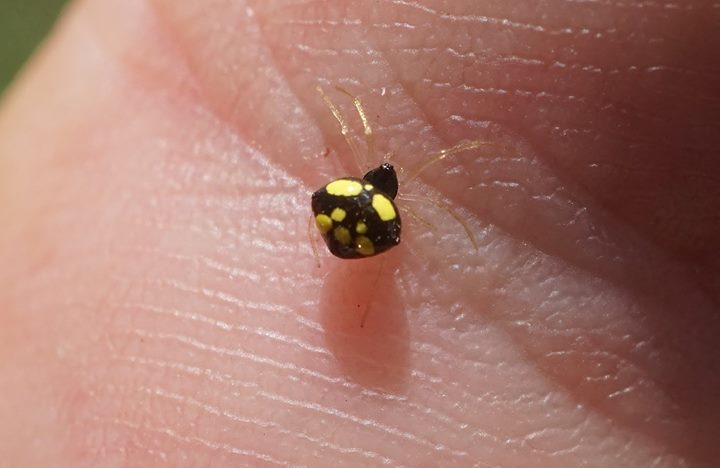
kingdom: Animalia
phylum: Arthropoda
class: Arachnida
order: Araneae
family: Theridiidae
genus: Theridula
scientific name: Theridula gonygaster
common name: Cobweb spiders
